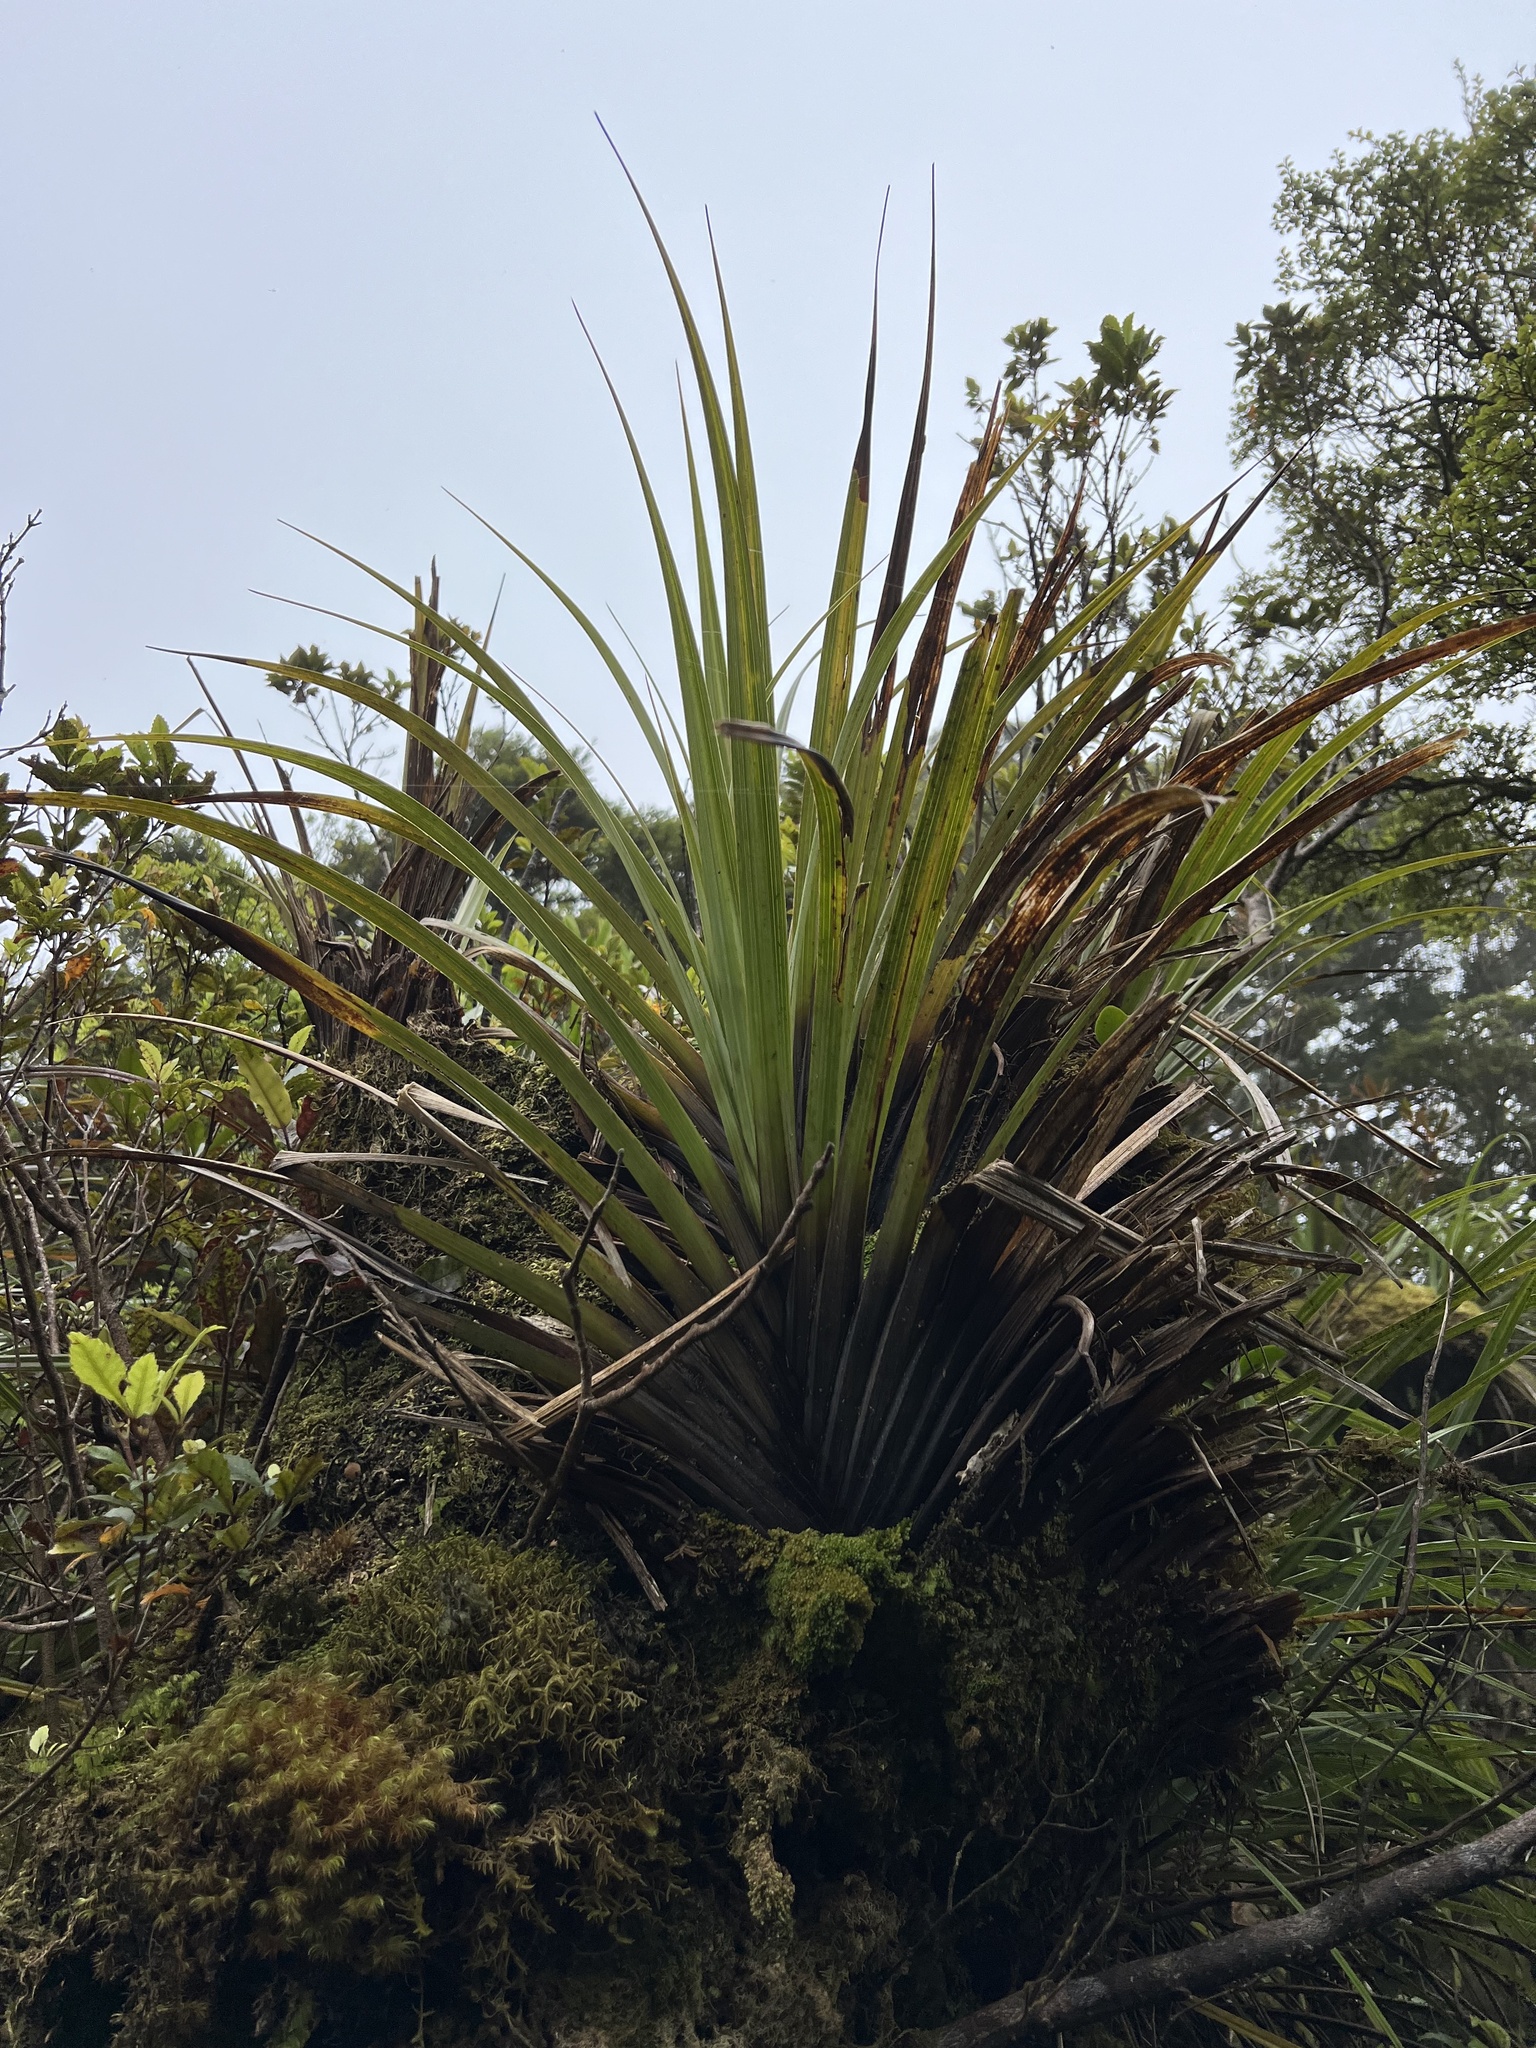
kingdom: Plantae
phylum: Tracheophyta
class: Liliopsida
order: Asparagales
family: Asteliaceae
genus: Astelia
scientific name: Astelia microsperma
